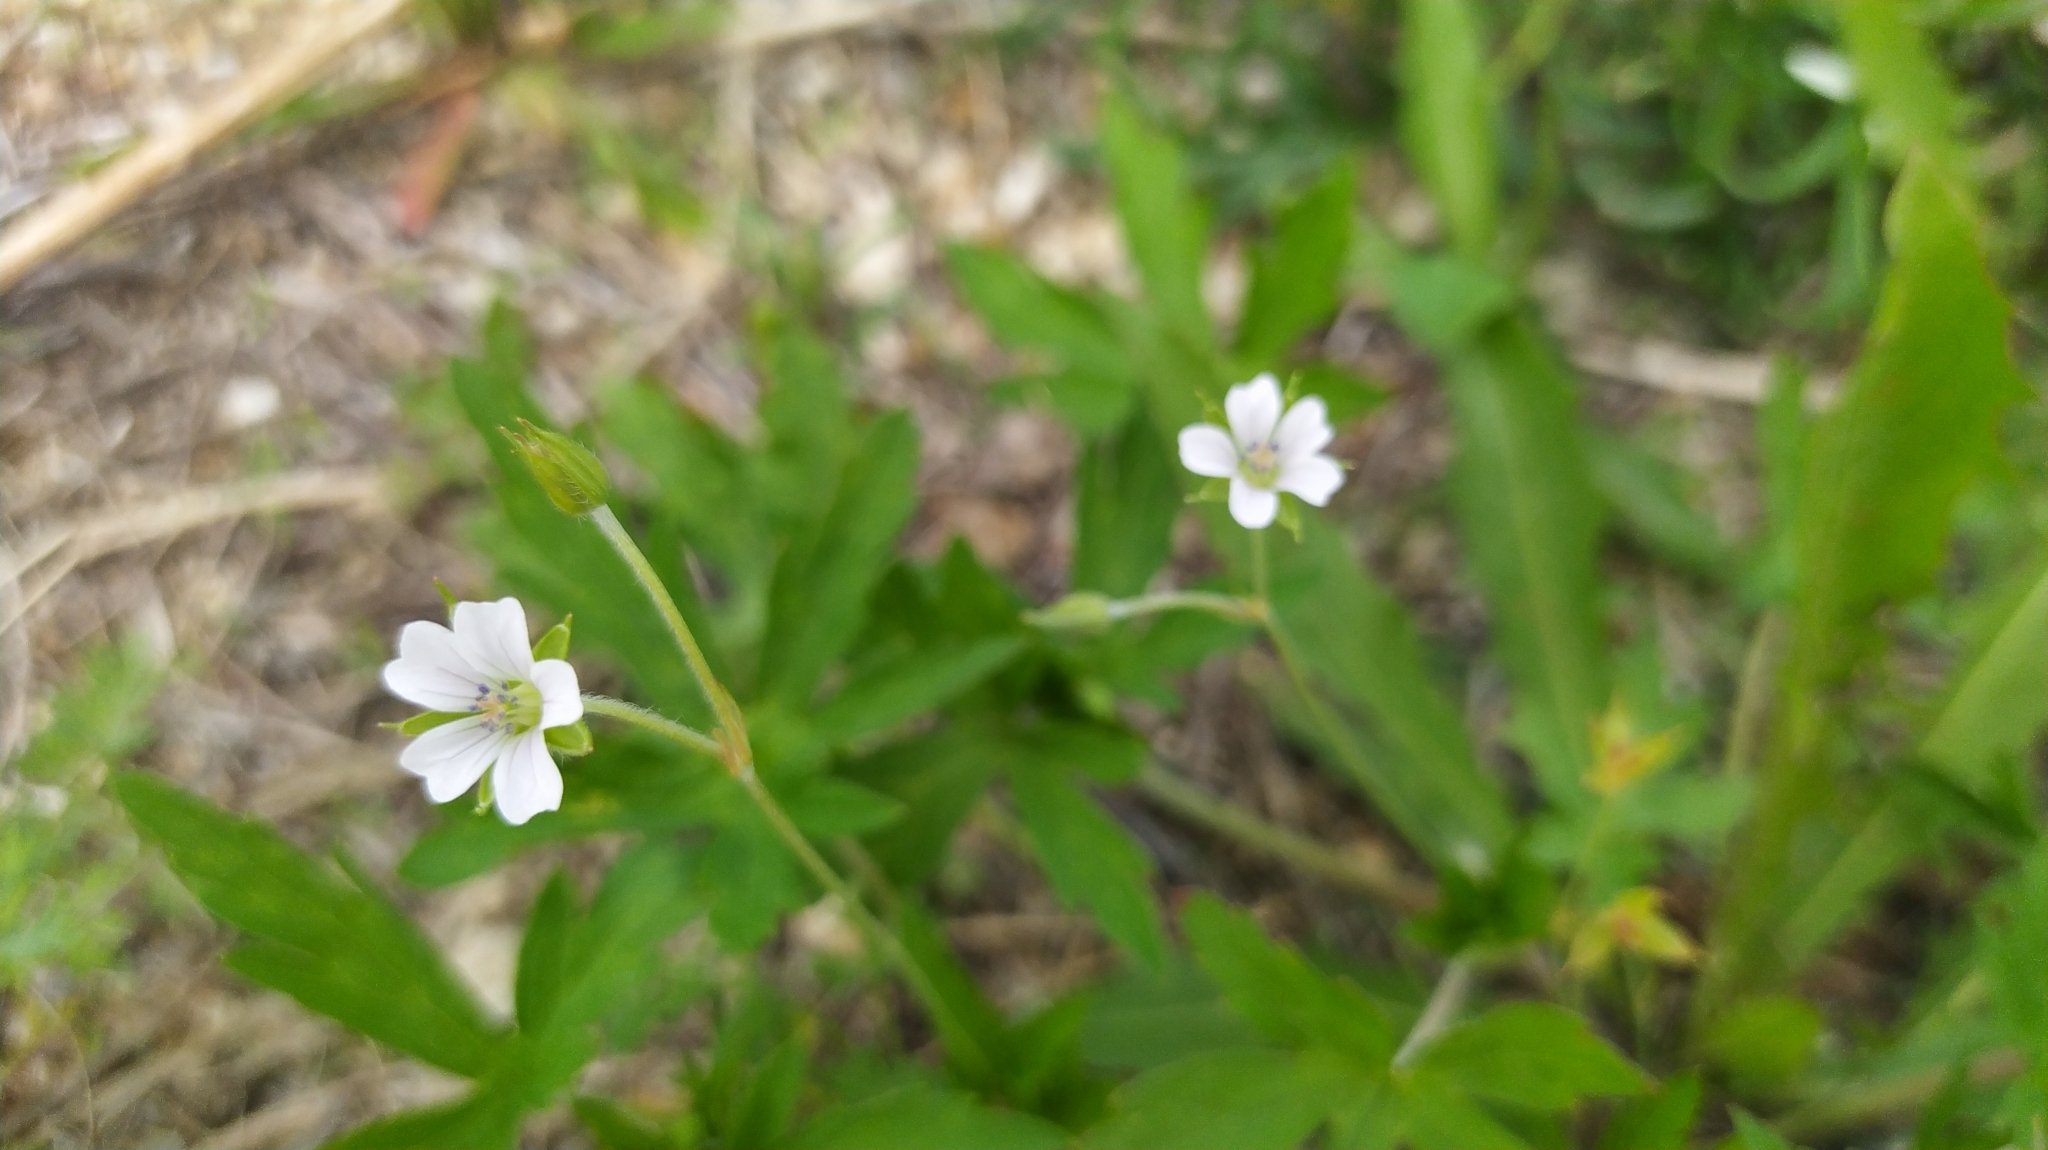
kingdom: Plantae
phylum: Tracheophyta
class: Magnoliopsida
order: Geraniales
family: Geraniaceae
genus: Geranium
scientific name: Geranium sibiricum
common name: Siberian crane's-bill
